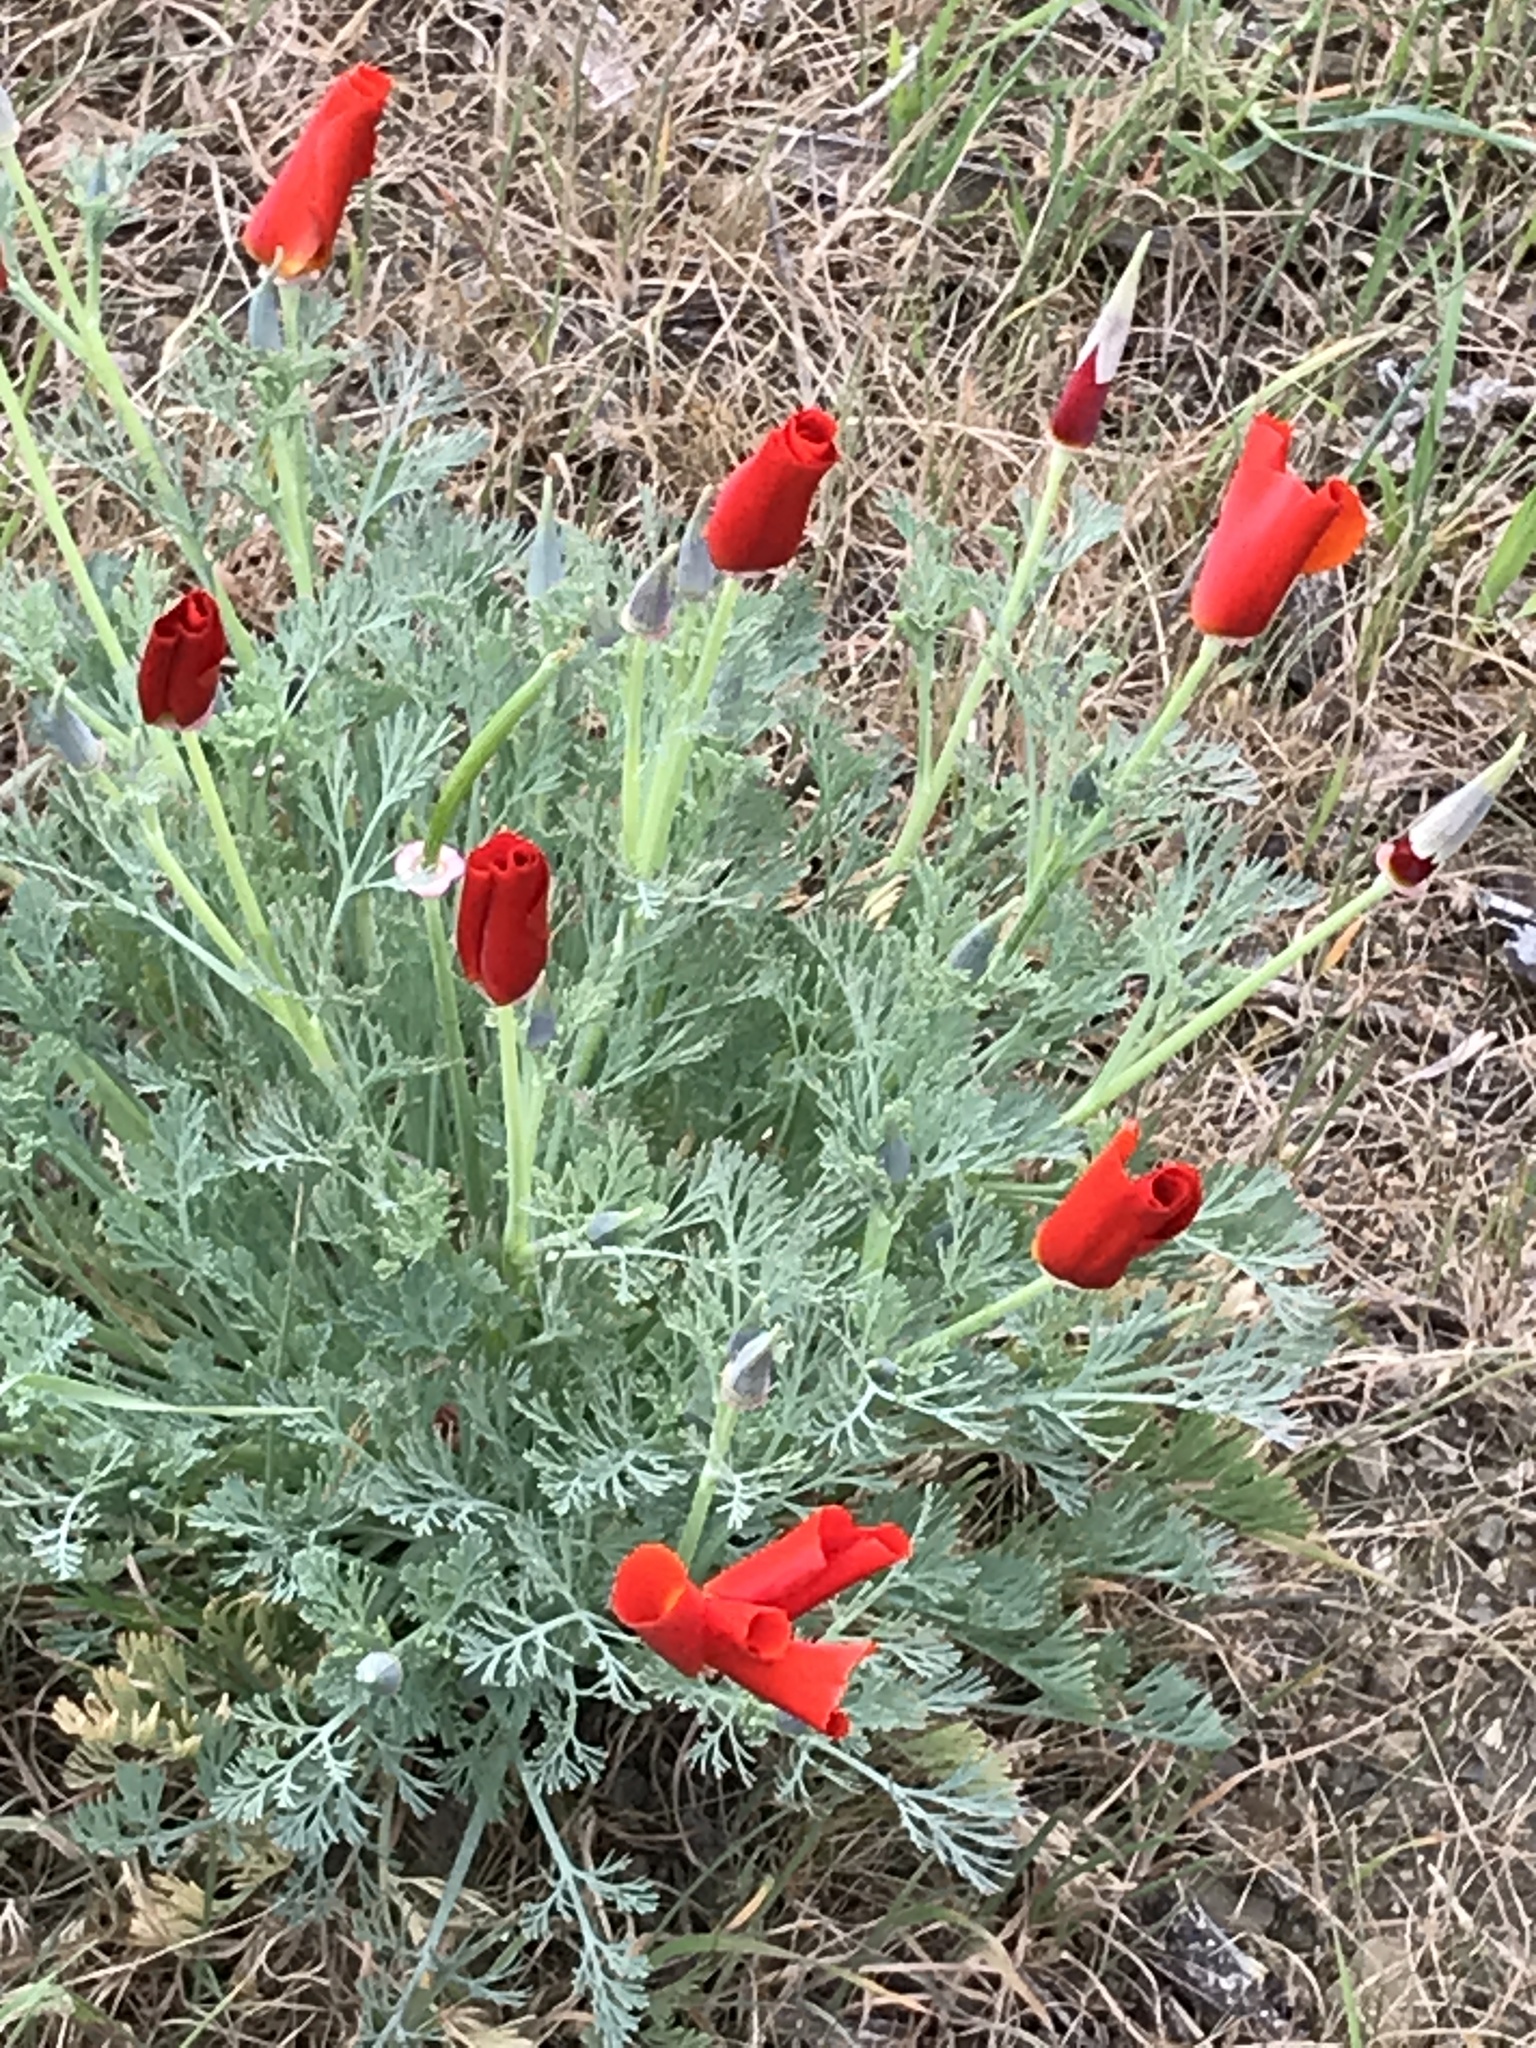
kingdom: Plantae
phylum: Tracheophyta
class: Magnoliopsida
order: Ranunculales
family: Papaveraceae
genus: Eschscholzia
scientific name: Eschscholzia californica
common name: California poppy
